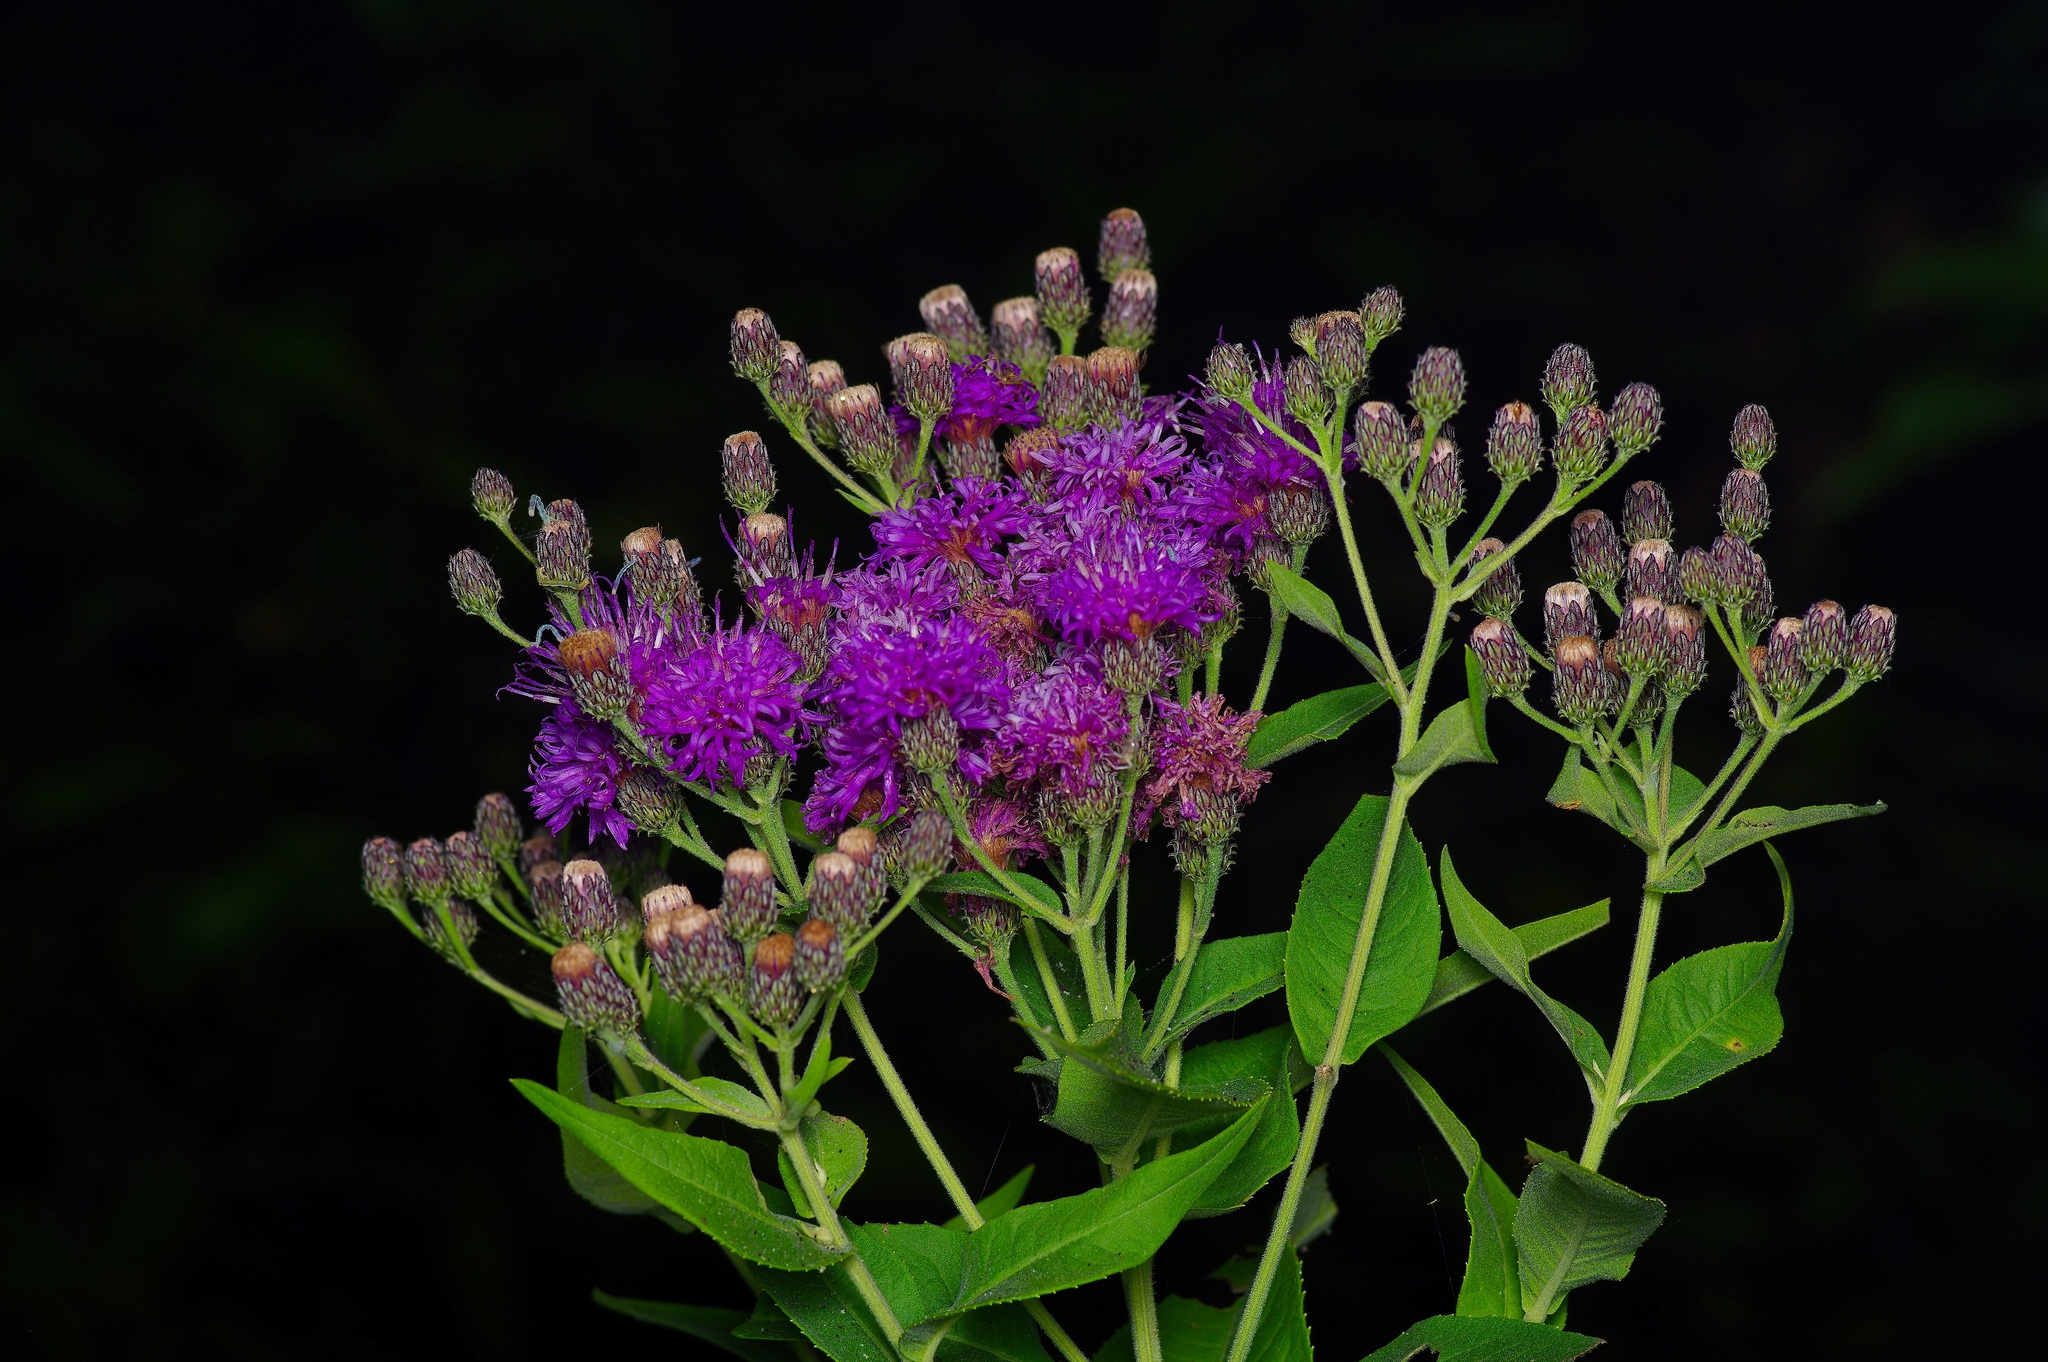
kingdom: Plantae
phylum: Tracheophyta
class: Magnoliopsida
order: Asterales
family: Asteraceae
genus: Vernonia
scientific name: Vernonia baldwinii
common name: Western ironweed
